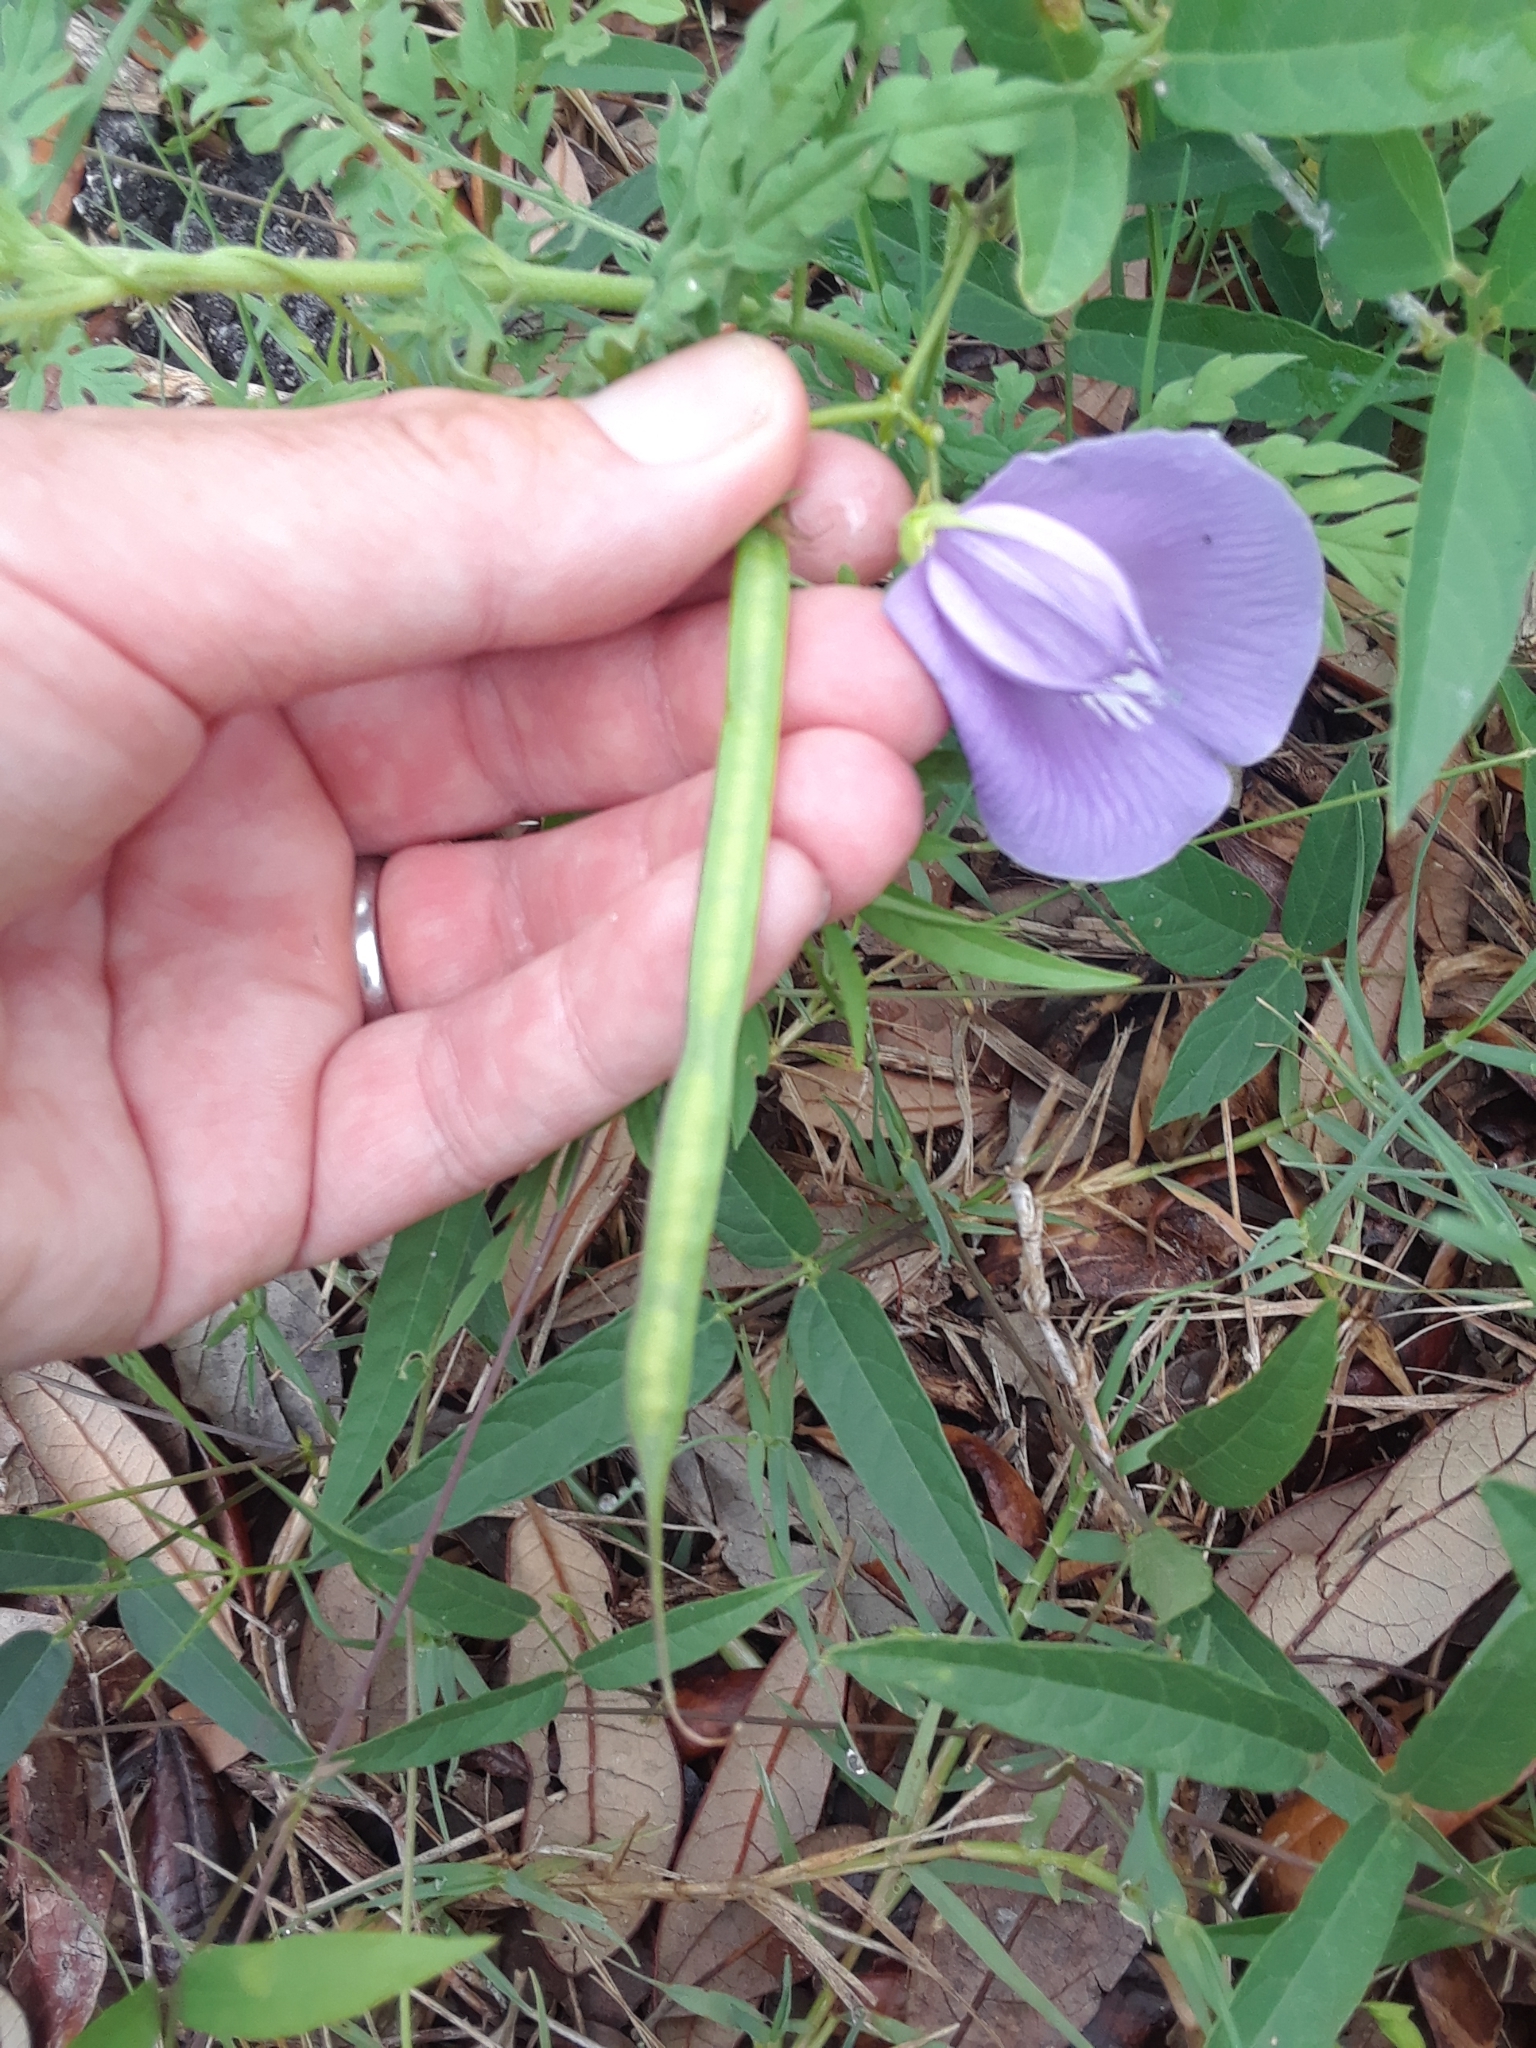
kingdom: Plantae
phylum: Tracheophyta
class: Magnoliopsida
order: Fabales
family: Fabaceae
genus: Centrosema
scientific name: Centrosema virginianum
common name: Butterfly-pea
